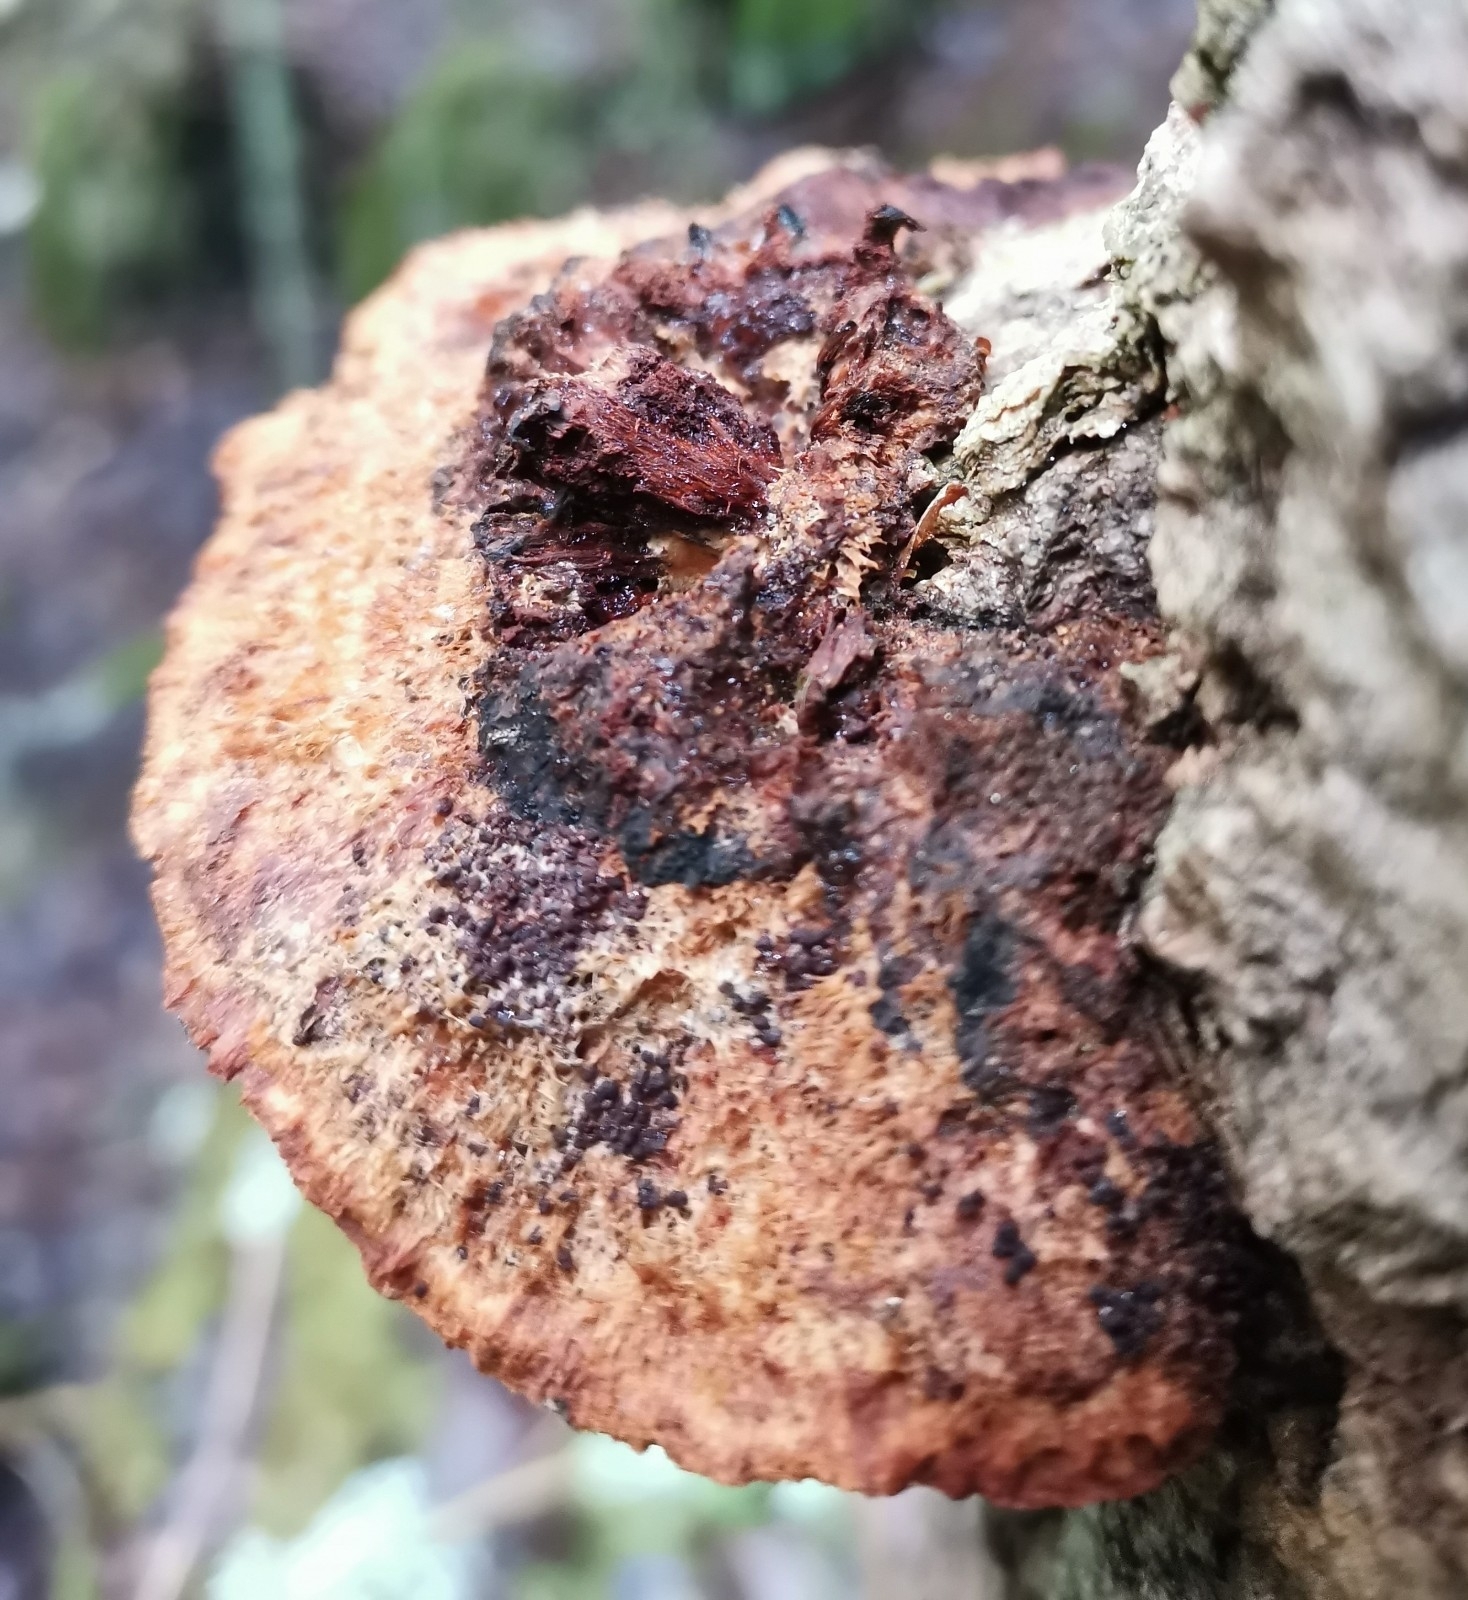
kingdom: Fungi
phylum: Basidiomycota
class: Agaricomycetes
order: Hymenochaetales
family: Hymenochaetaceae
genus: Inocutis
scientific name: Inocutis rheades
